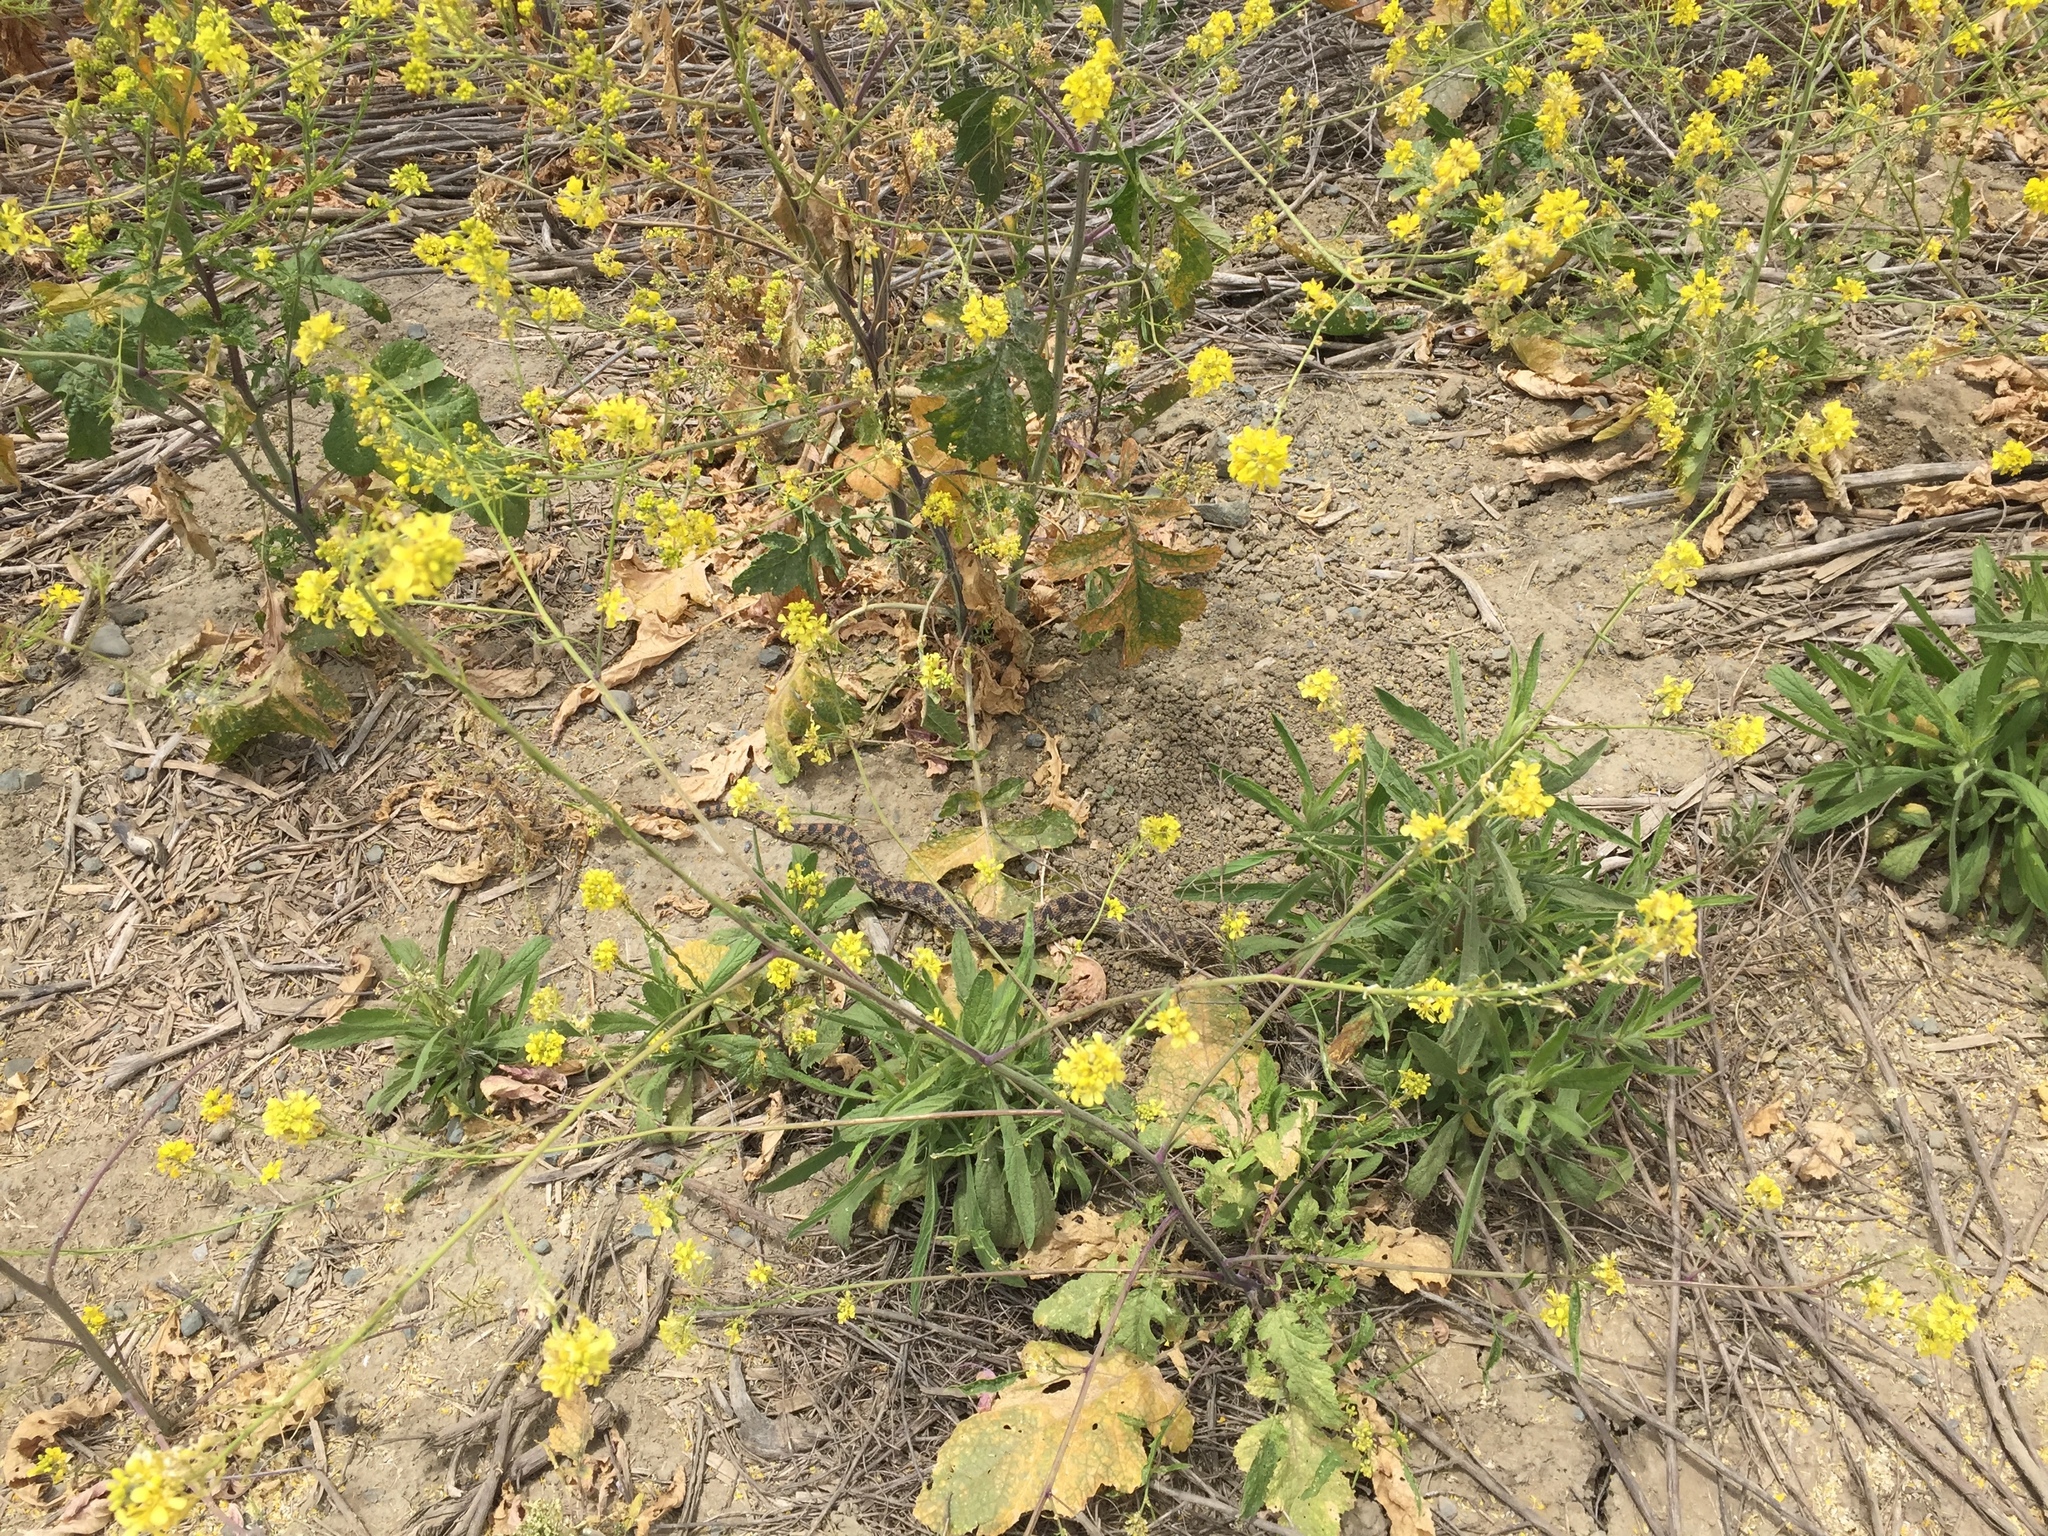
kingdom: Animalia
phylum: Chordata
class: Squamata
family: Colubridae
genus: Pituophis
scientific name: Pituophis catenifer
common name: Gopher snake
